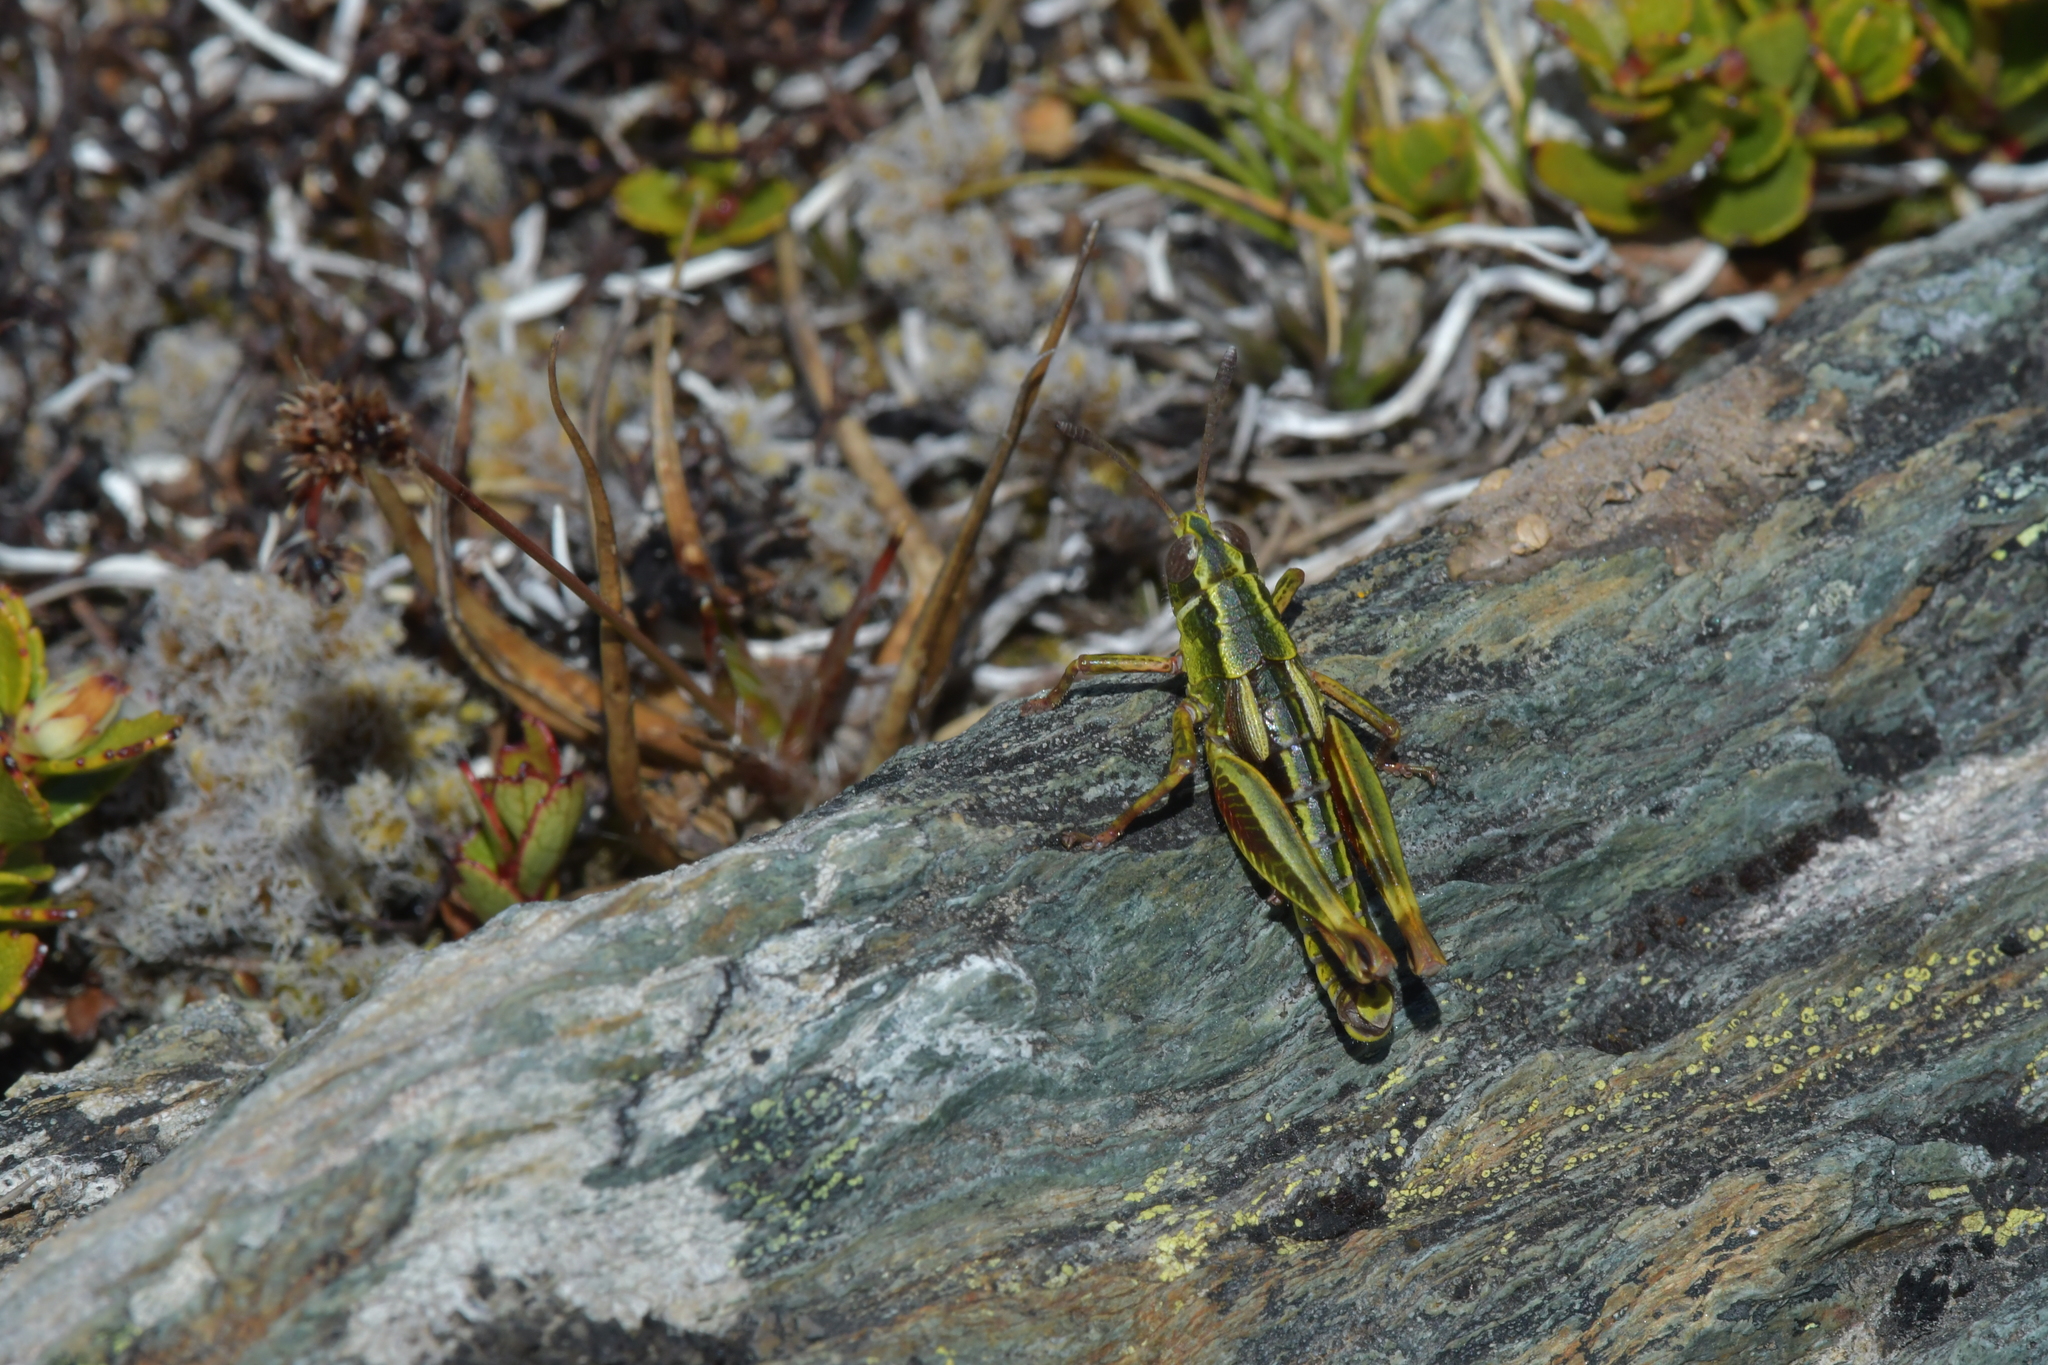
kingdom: Animalia
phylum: Arthropoda
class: Insecta
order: Orthoptera
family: Acrididae
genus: Sigaus
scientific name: Sigaus australis
